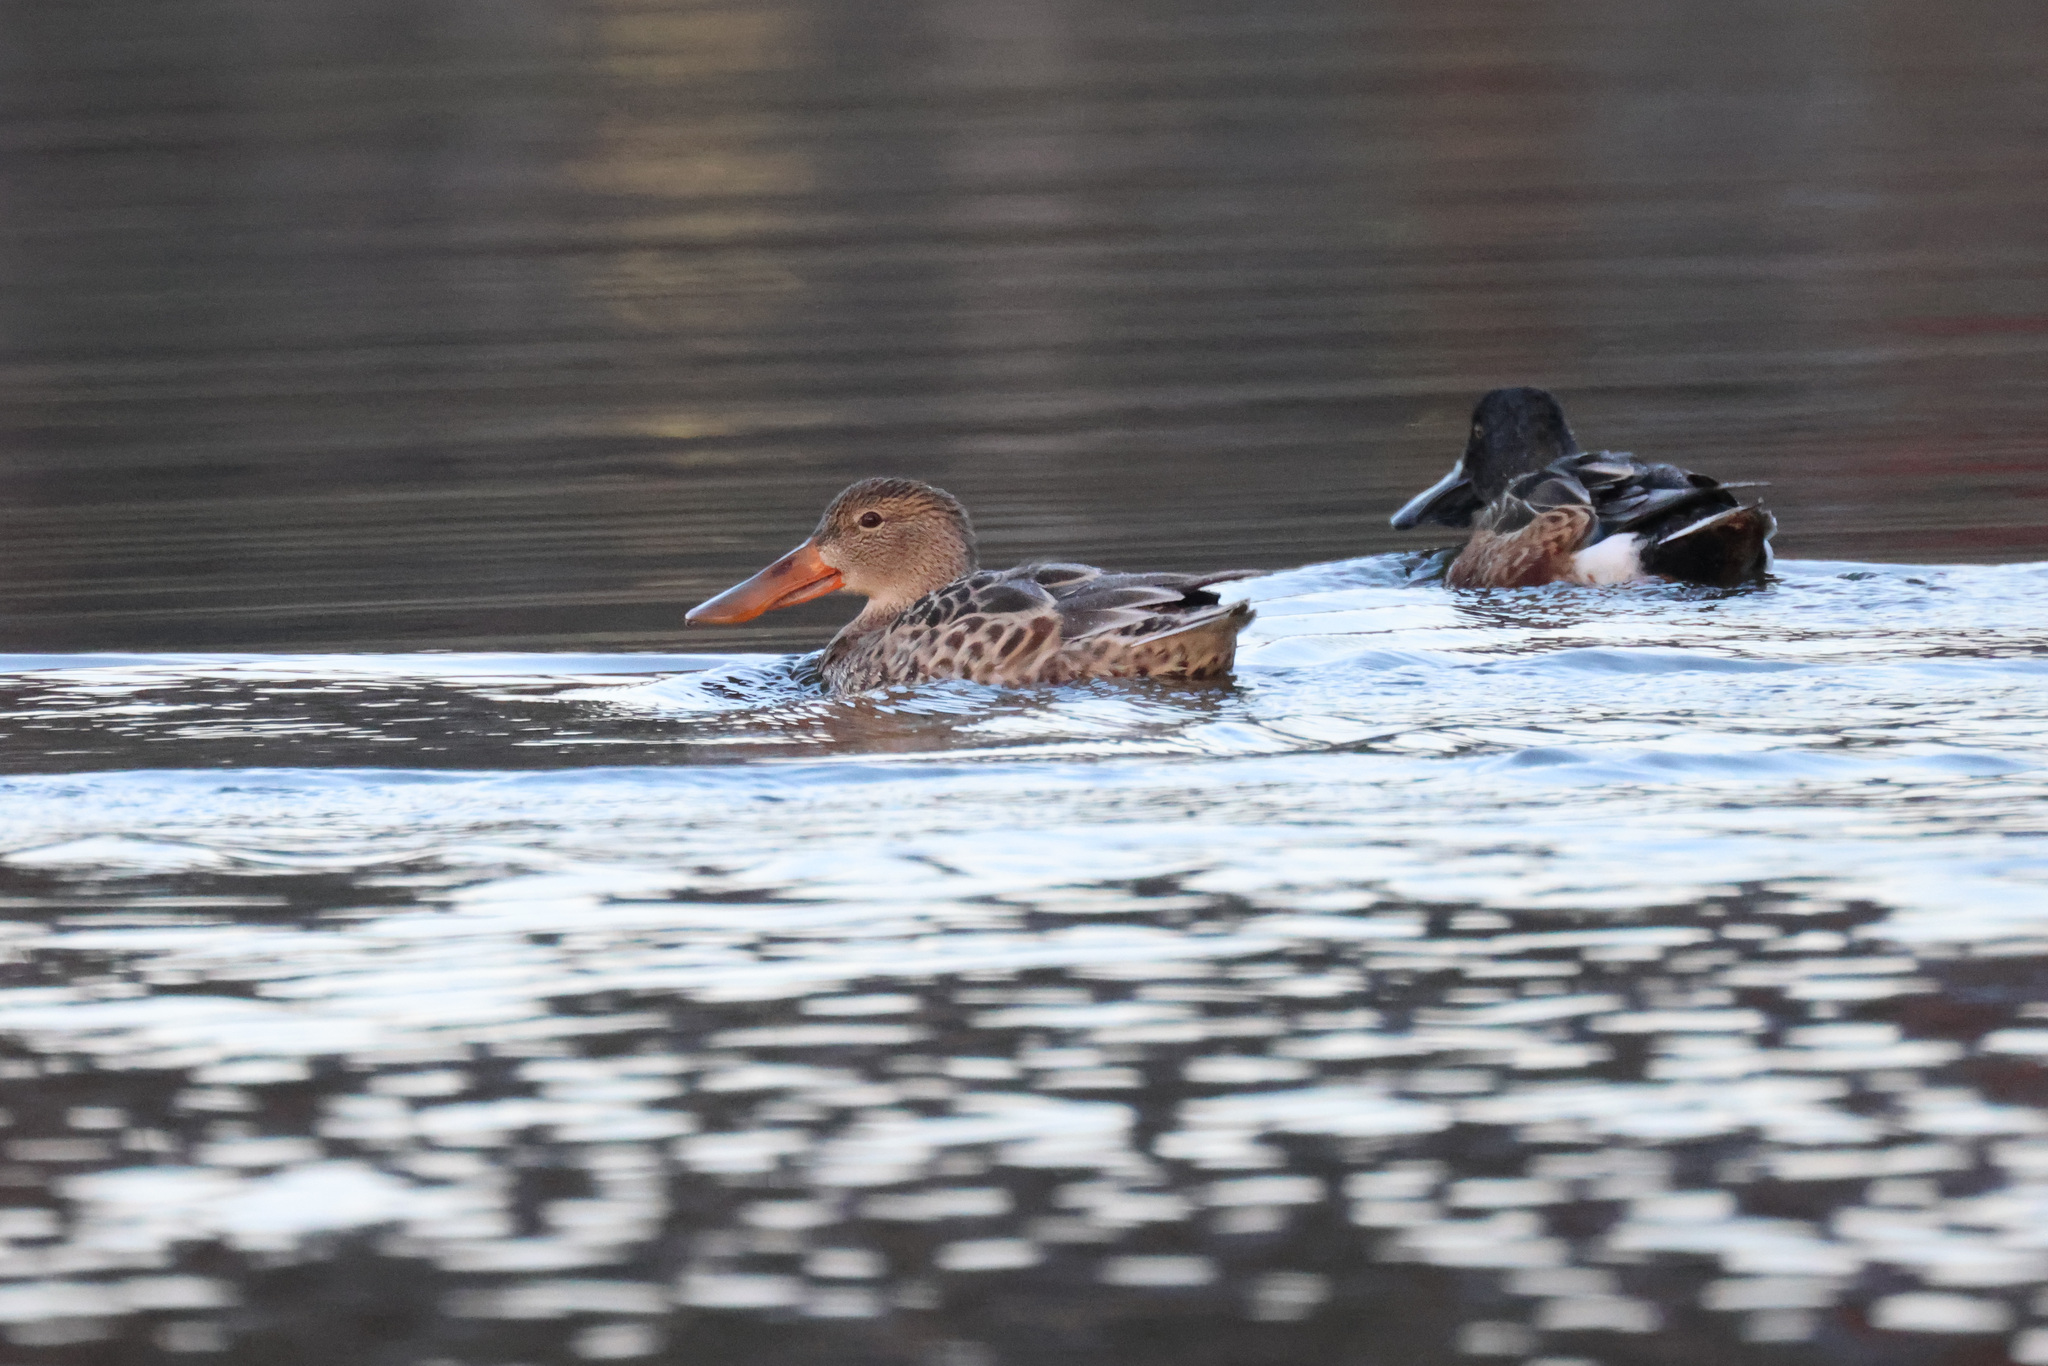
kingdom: Animalia
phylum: Chordata
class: Aves
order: Anseriformes
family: Anatidae
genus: Spatula
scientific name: Spatula clypeata
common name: Northern shoveler
